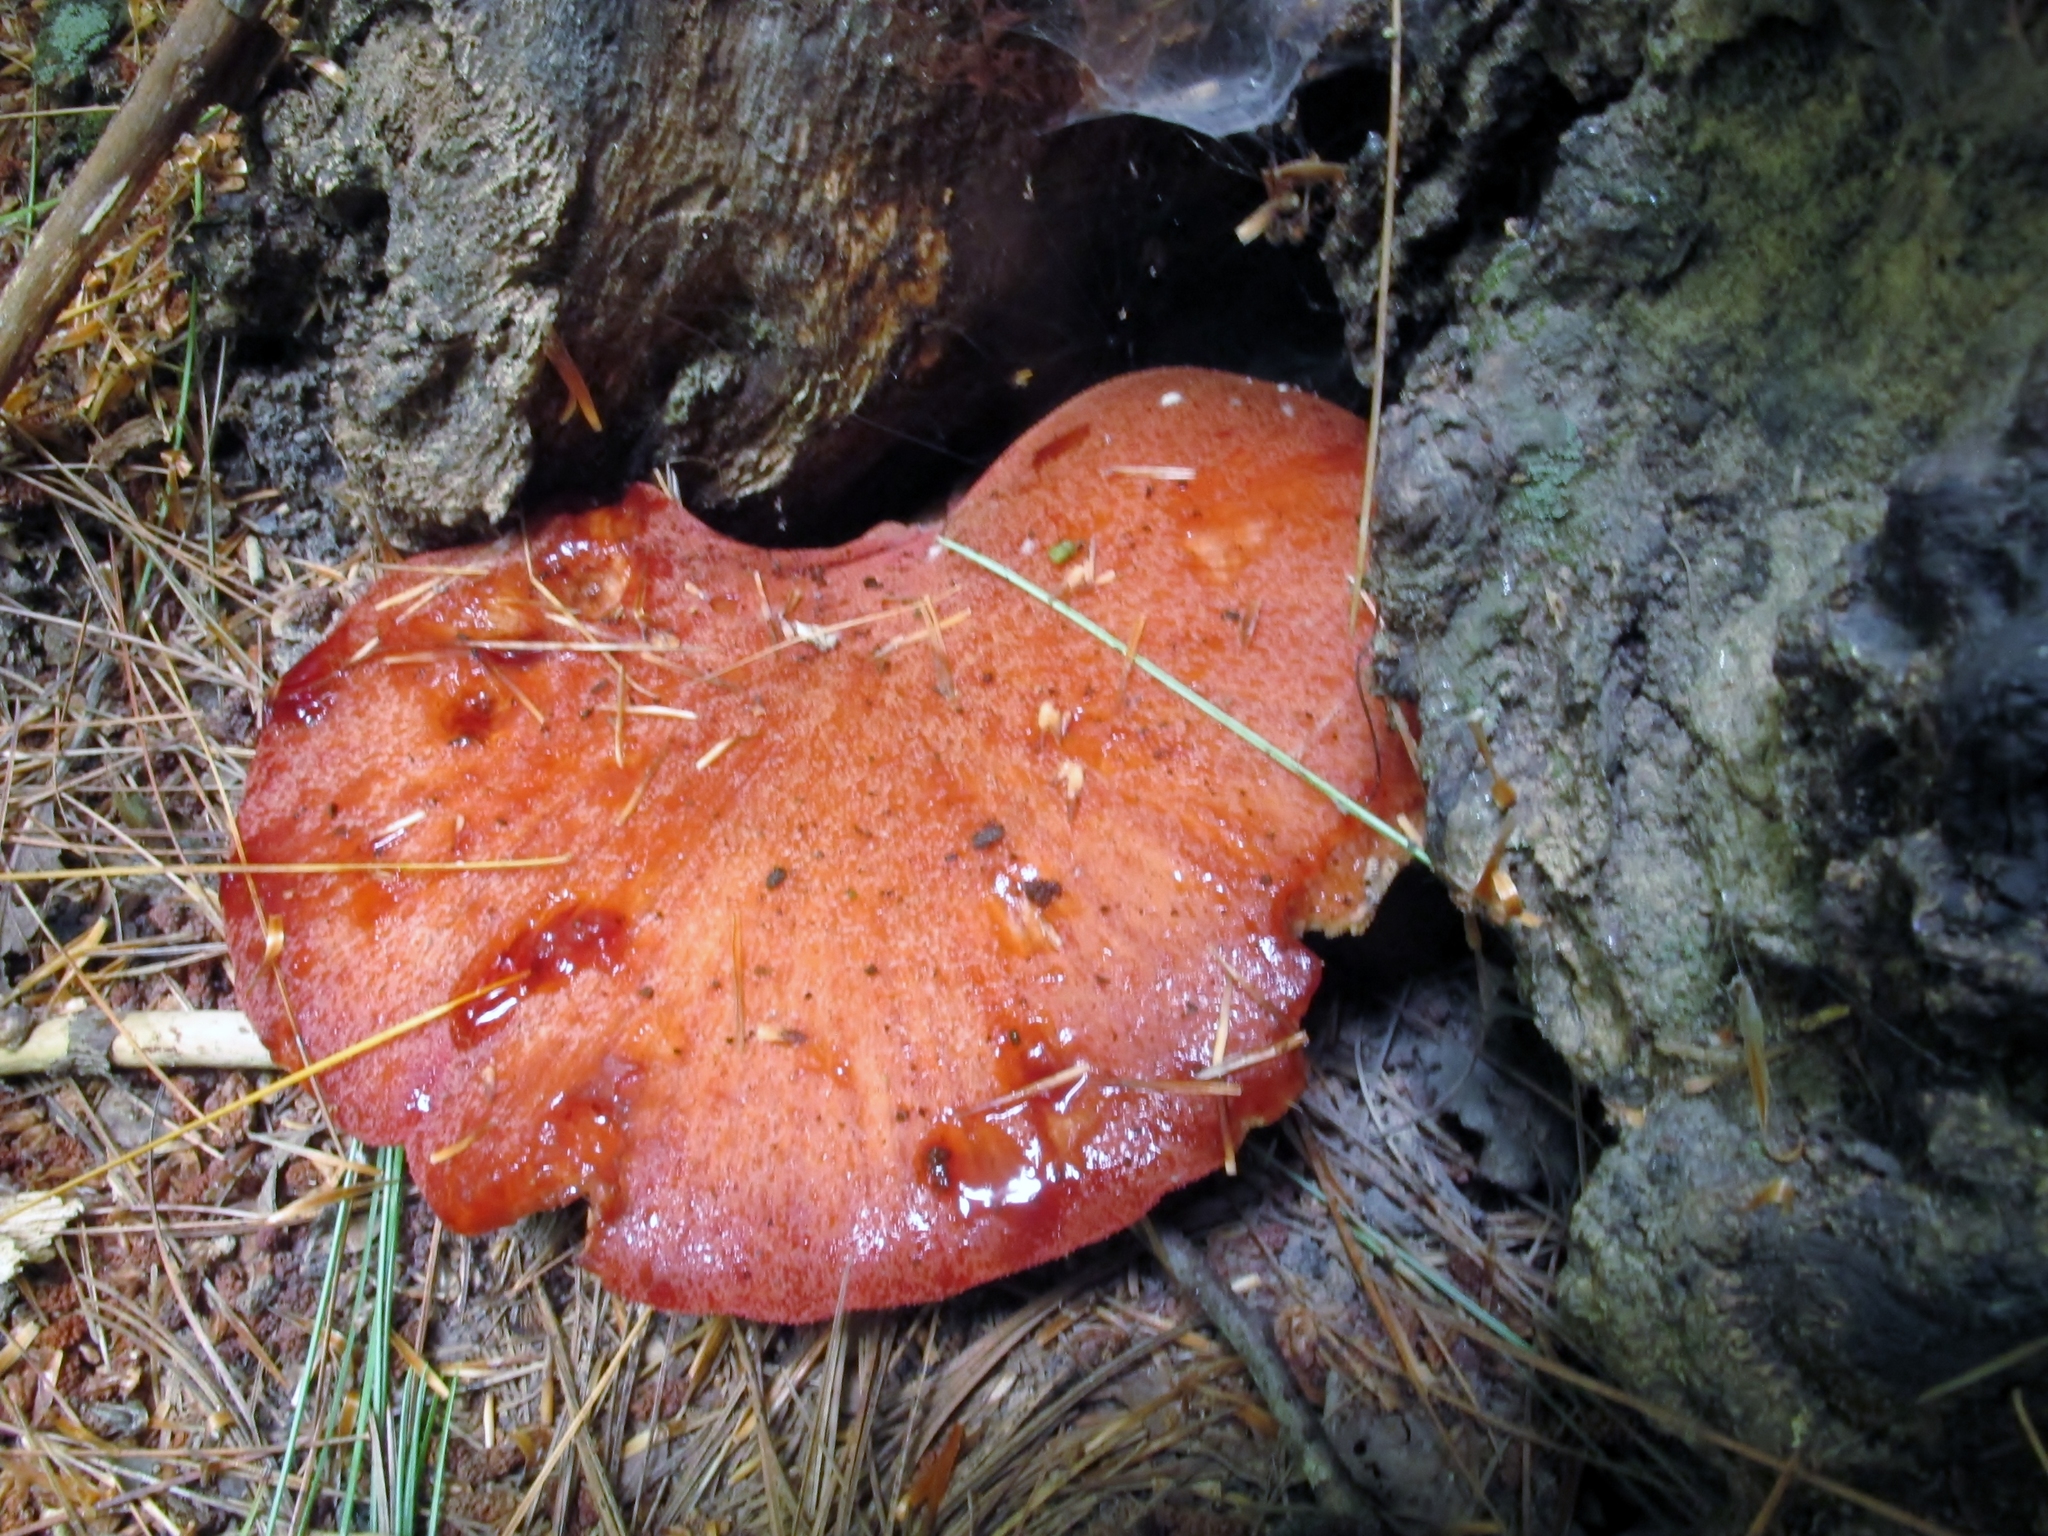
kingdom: Fungi
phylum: Basidiomycota
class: Agaricomycetes
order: Agaricales
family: Fistulinaceae
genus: Fistulina
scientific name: Fistulina hepatica
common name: Beef-steak fungus
